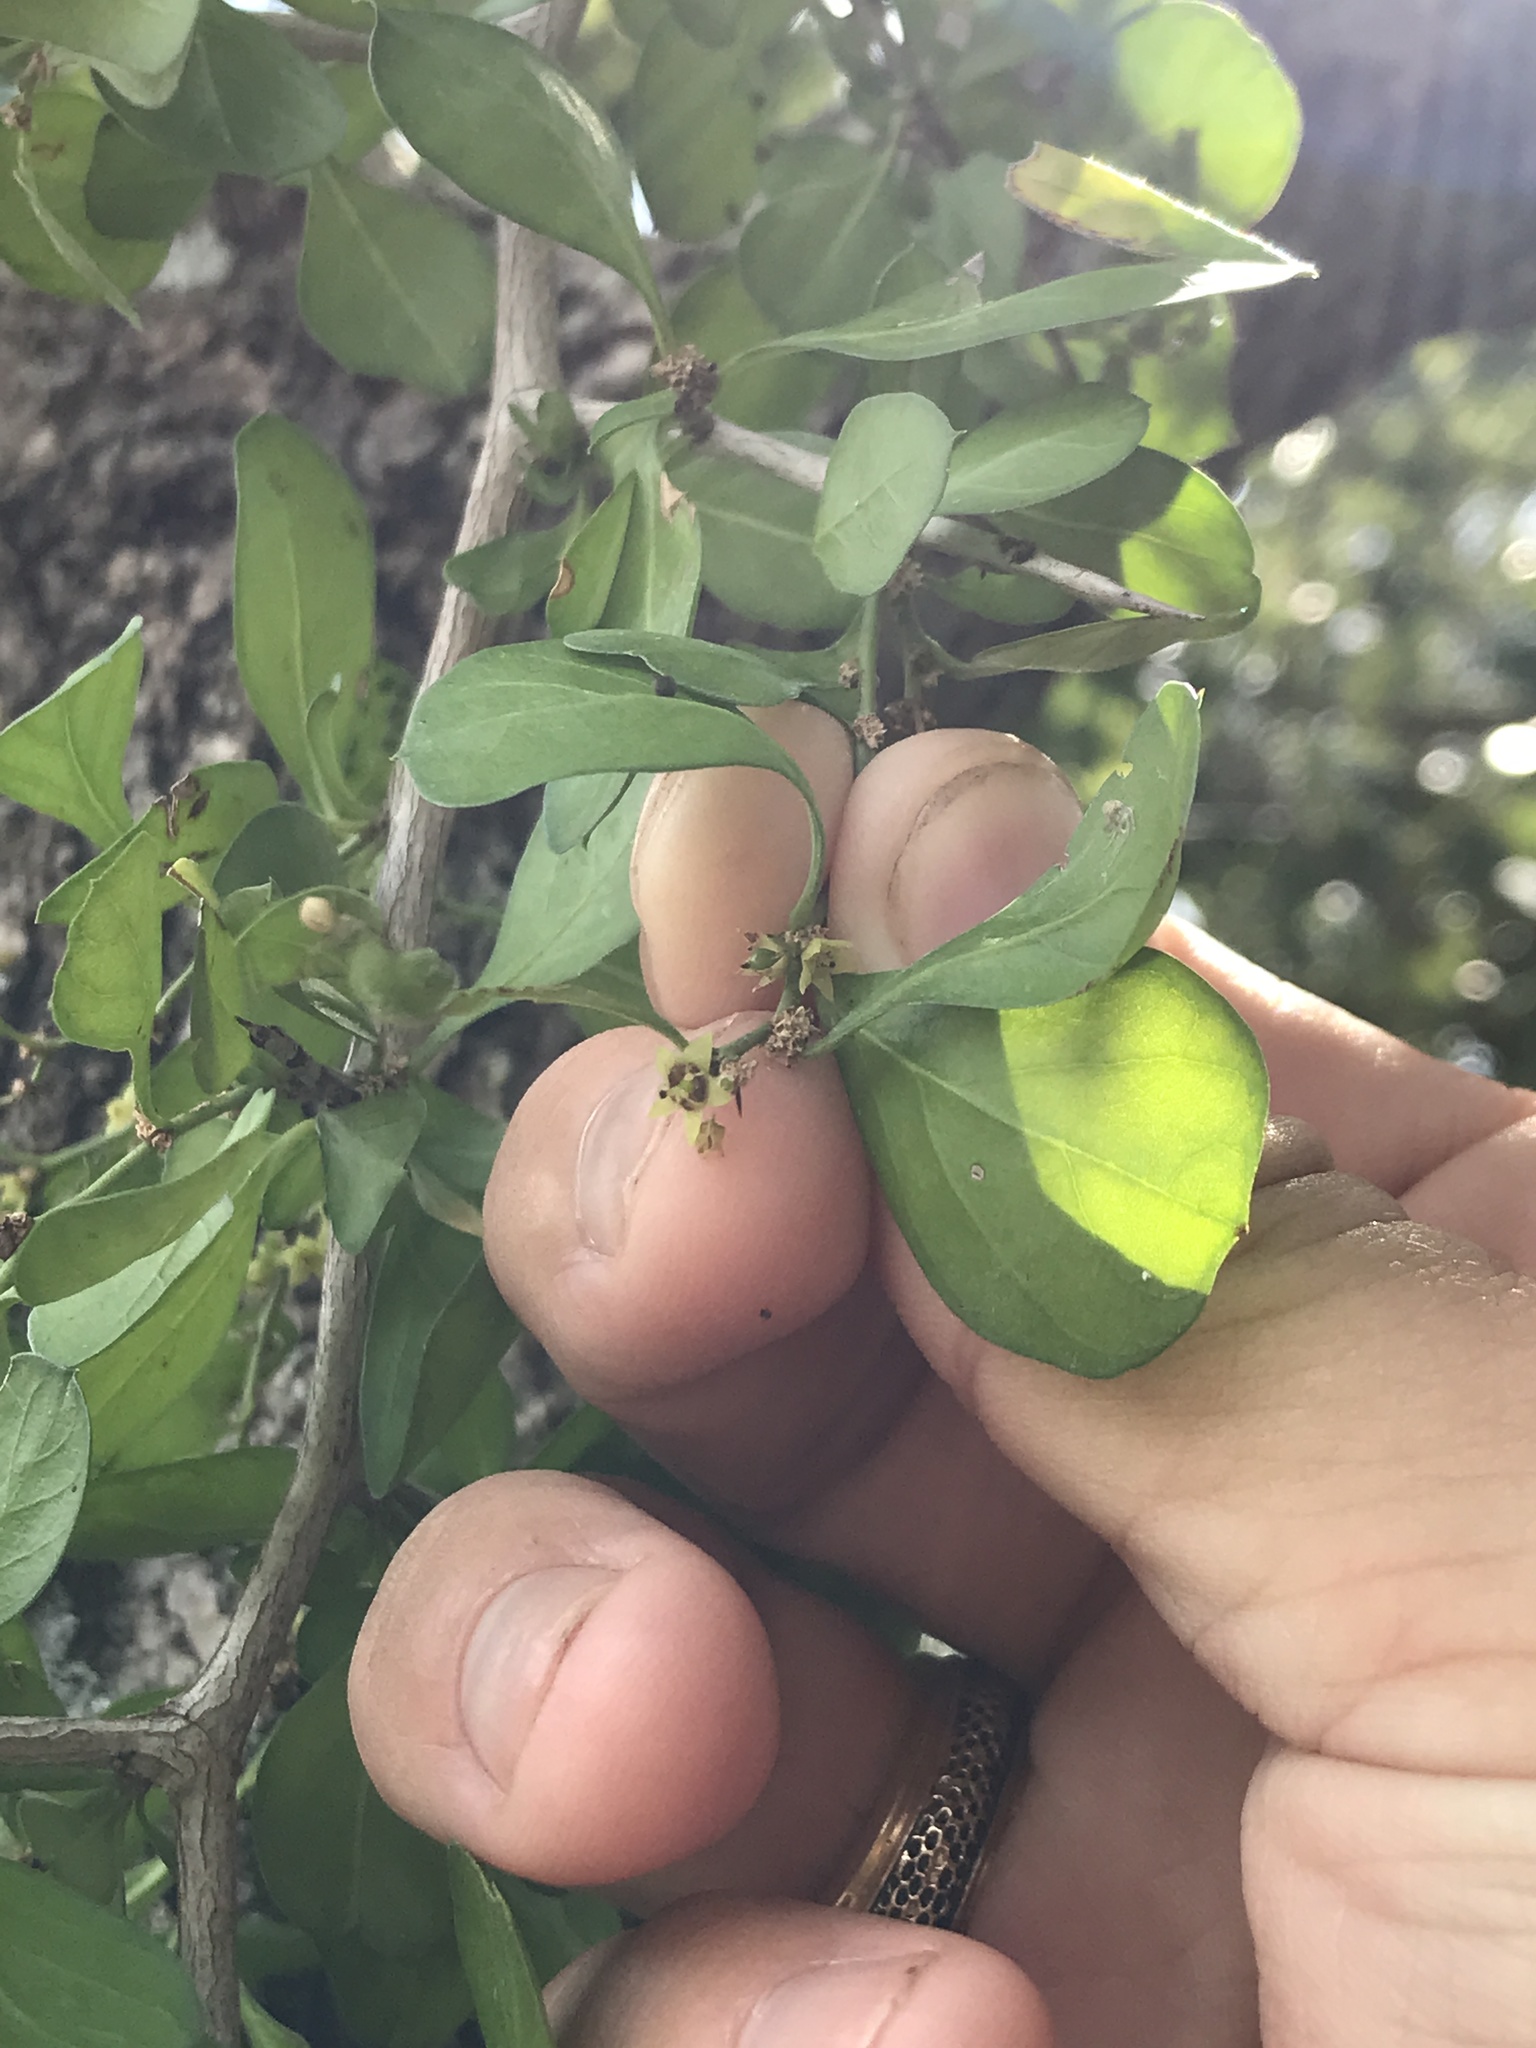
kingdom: Plantae
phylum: Tracheophyta
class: Magnoliopsida
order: Rosales
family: Rhamnaceae
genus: Condalia
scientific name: Condalia hookeri
